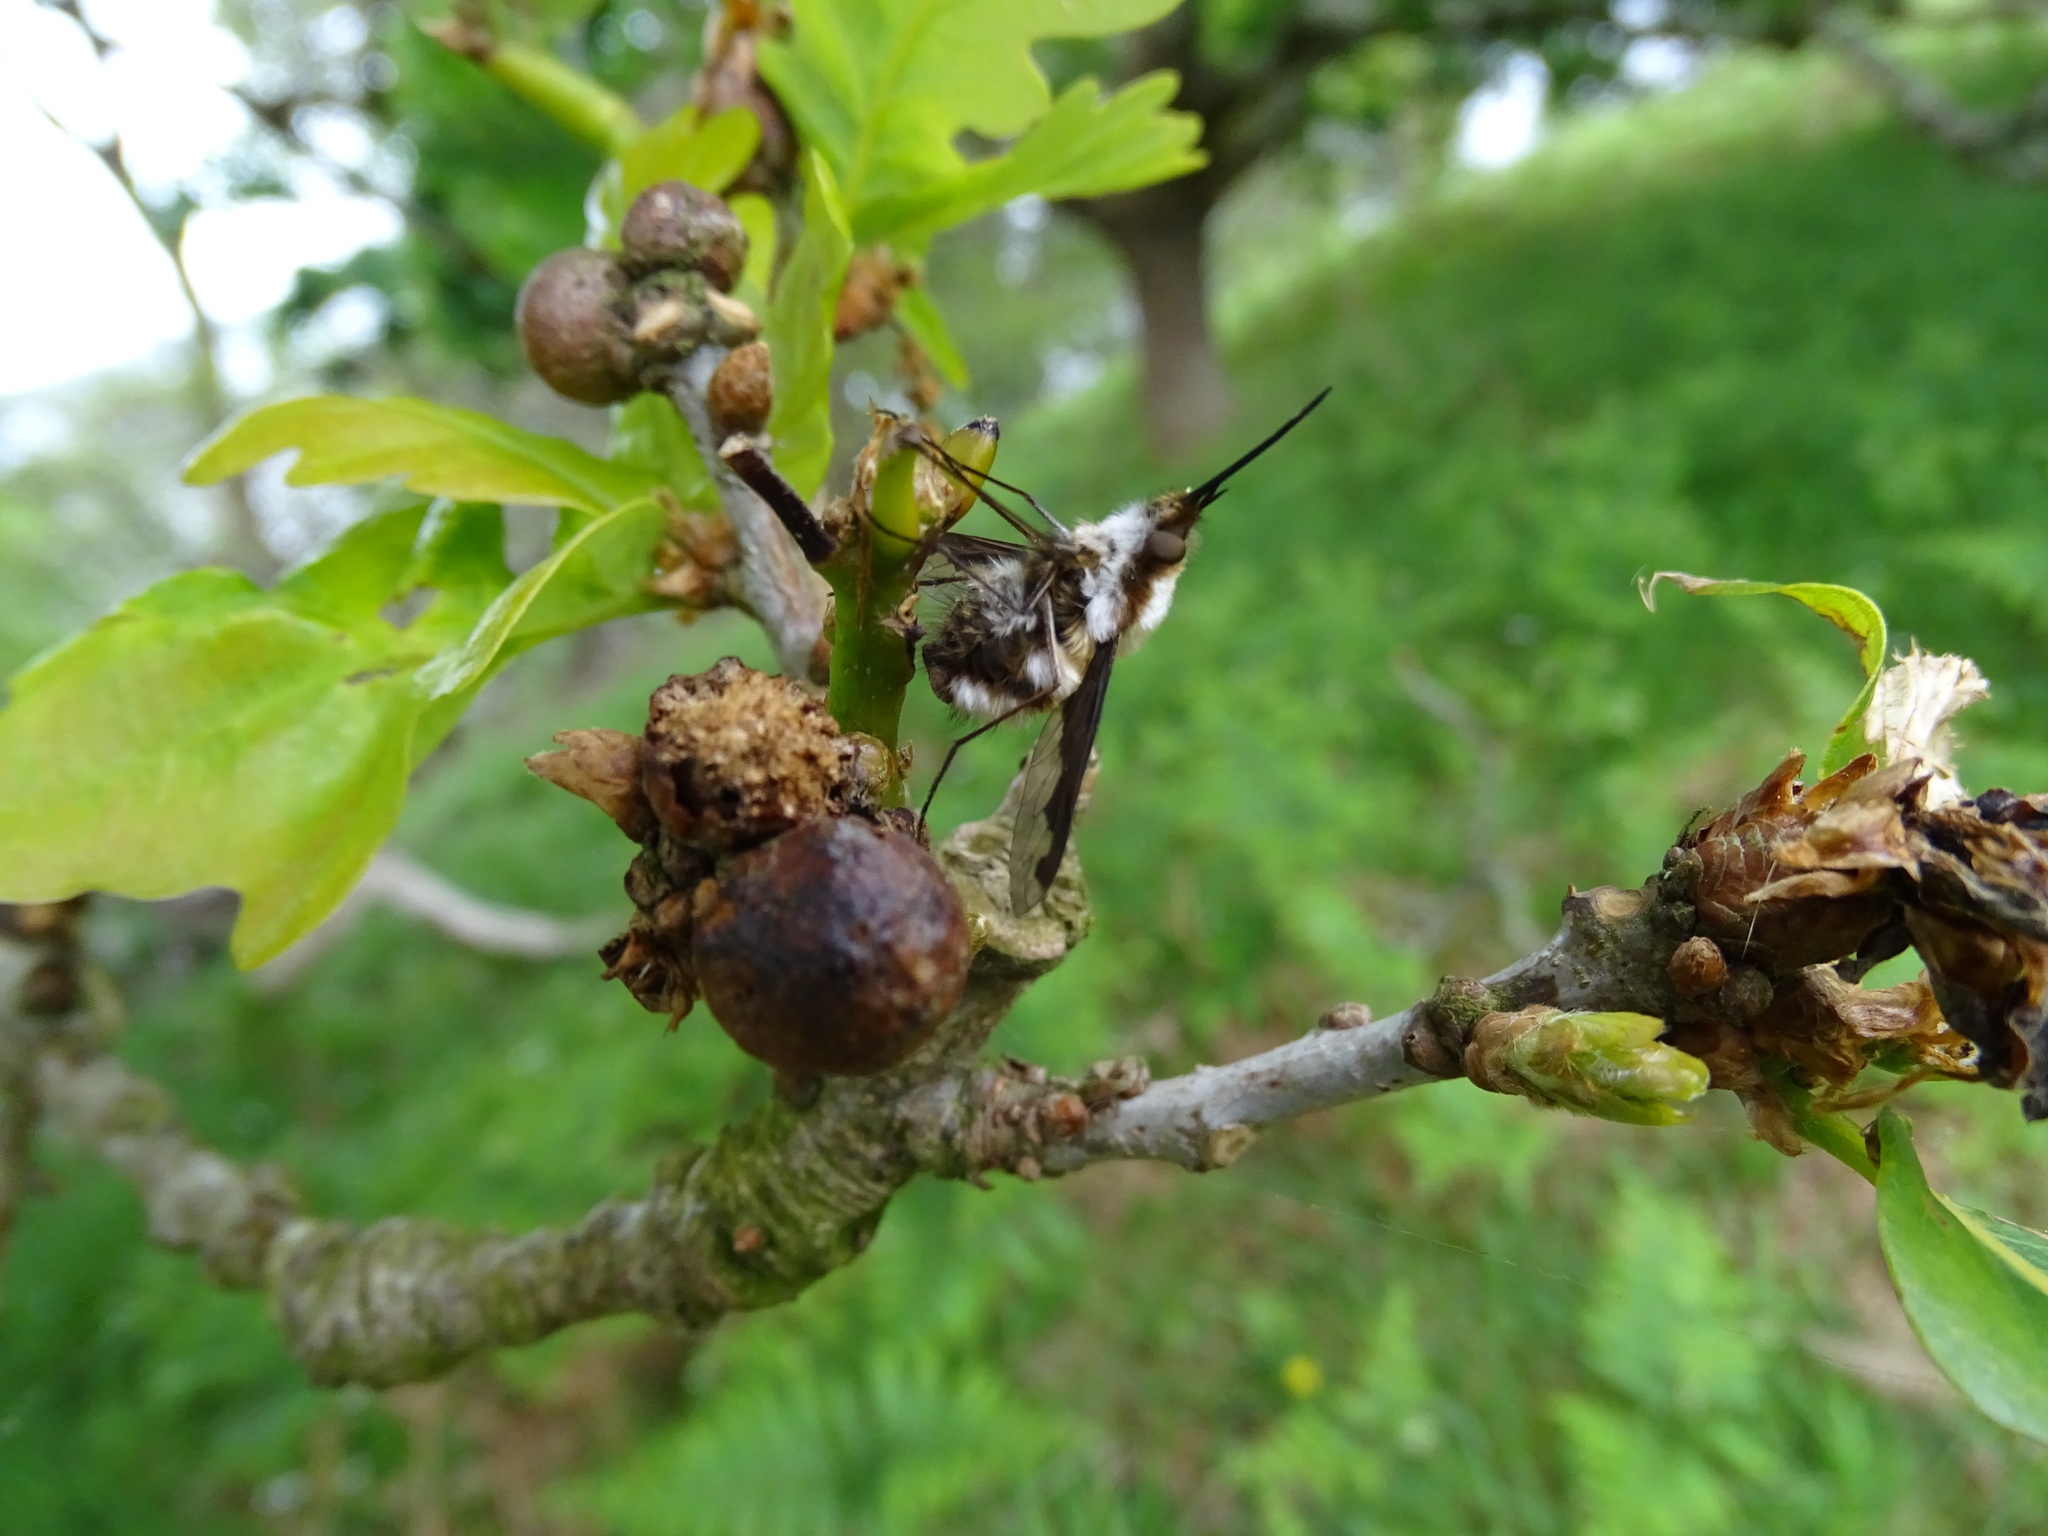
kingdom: Animalia
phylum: Arthropoda
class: Insecta
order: Diptera
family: Bombyliidae
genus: Bombylius
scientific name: Bombylius major
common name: Bee fly
